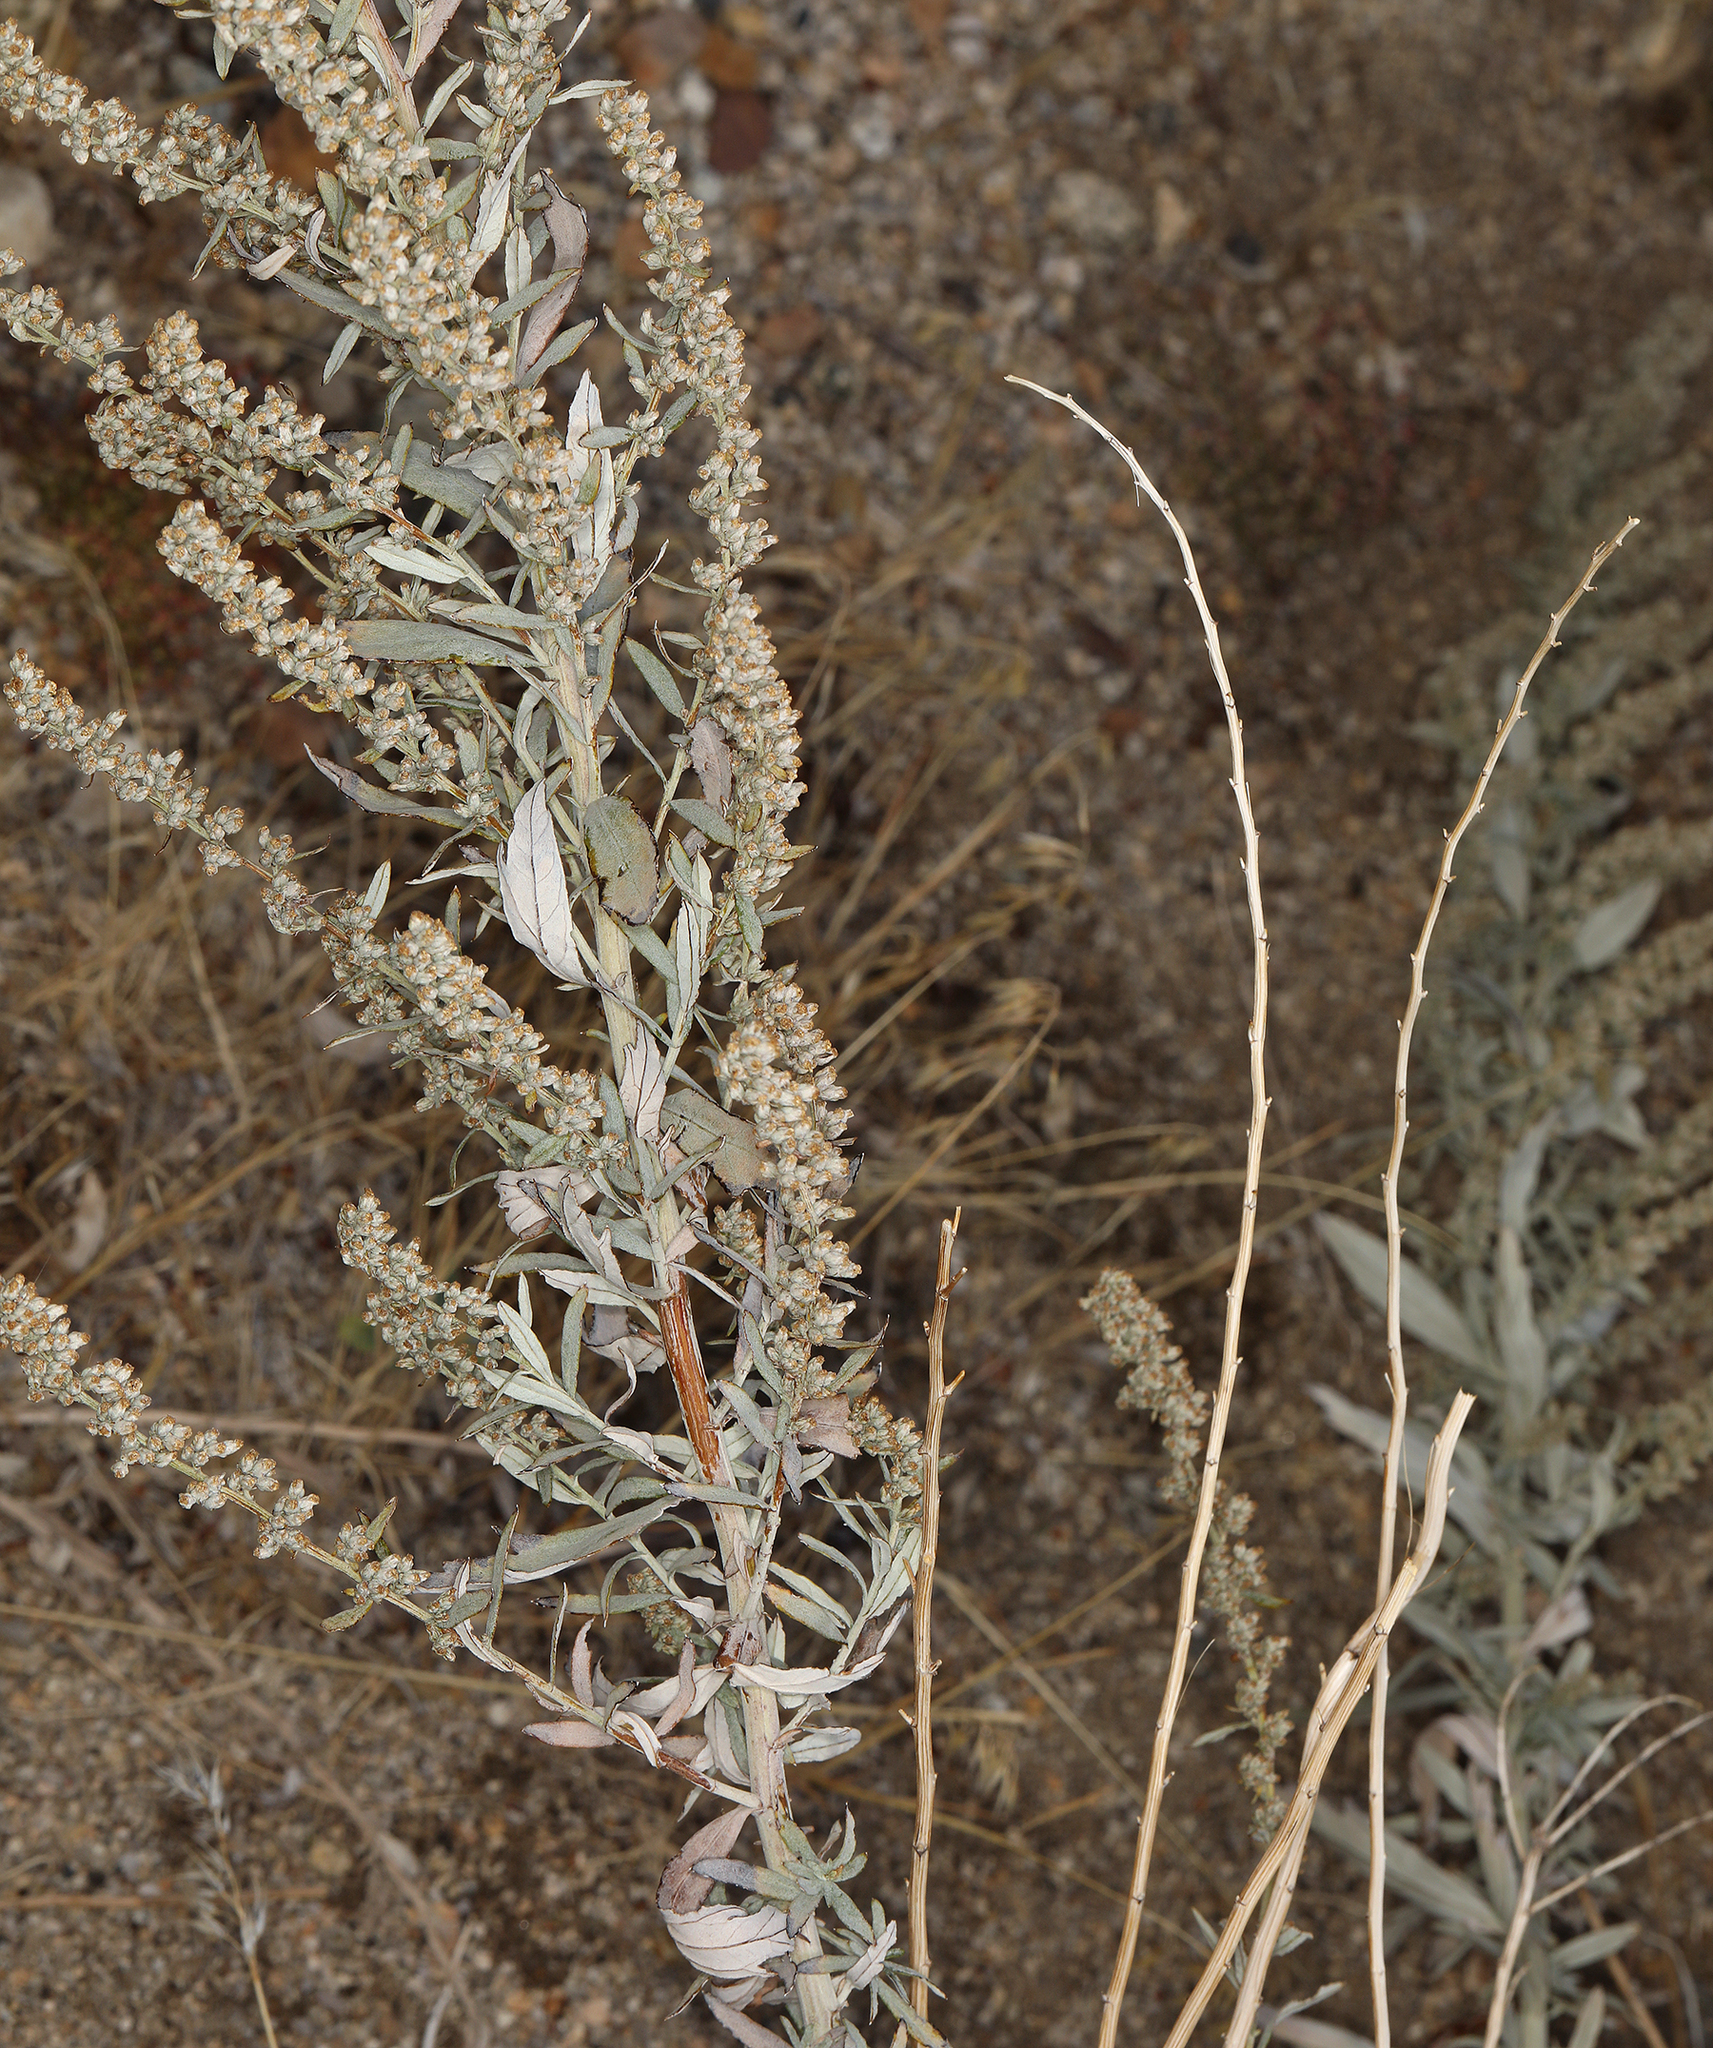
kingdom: Plantae
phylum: Tracheophyta
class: Magnoliopsida
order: Asterales
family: Asteraceae
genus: Artemisia
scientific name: Artemisia ludoviciana
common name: Western mugwort
